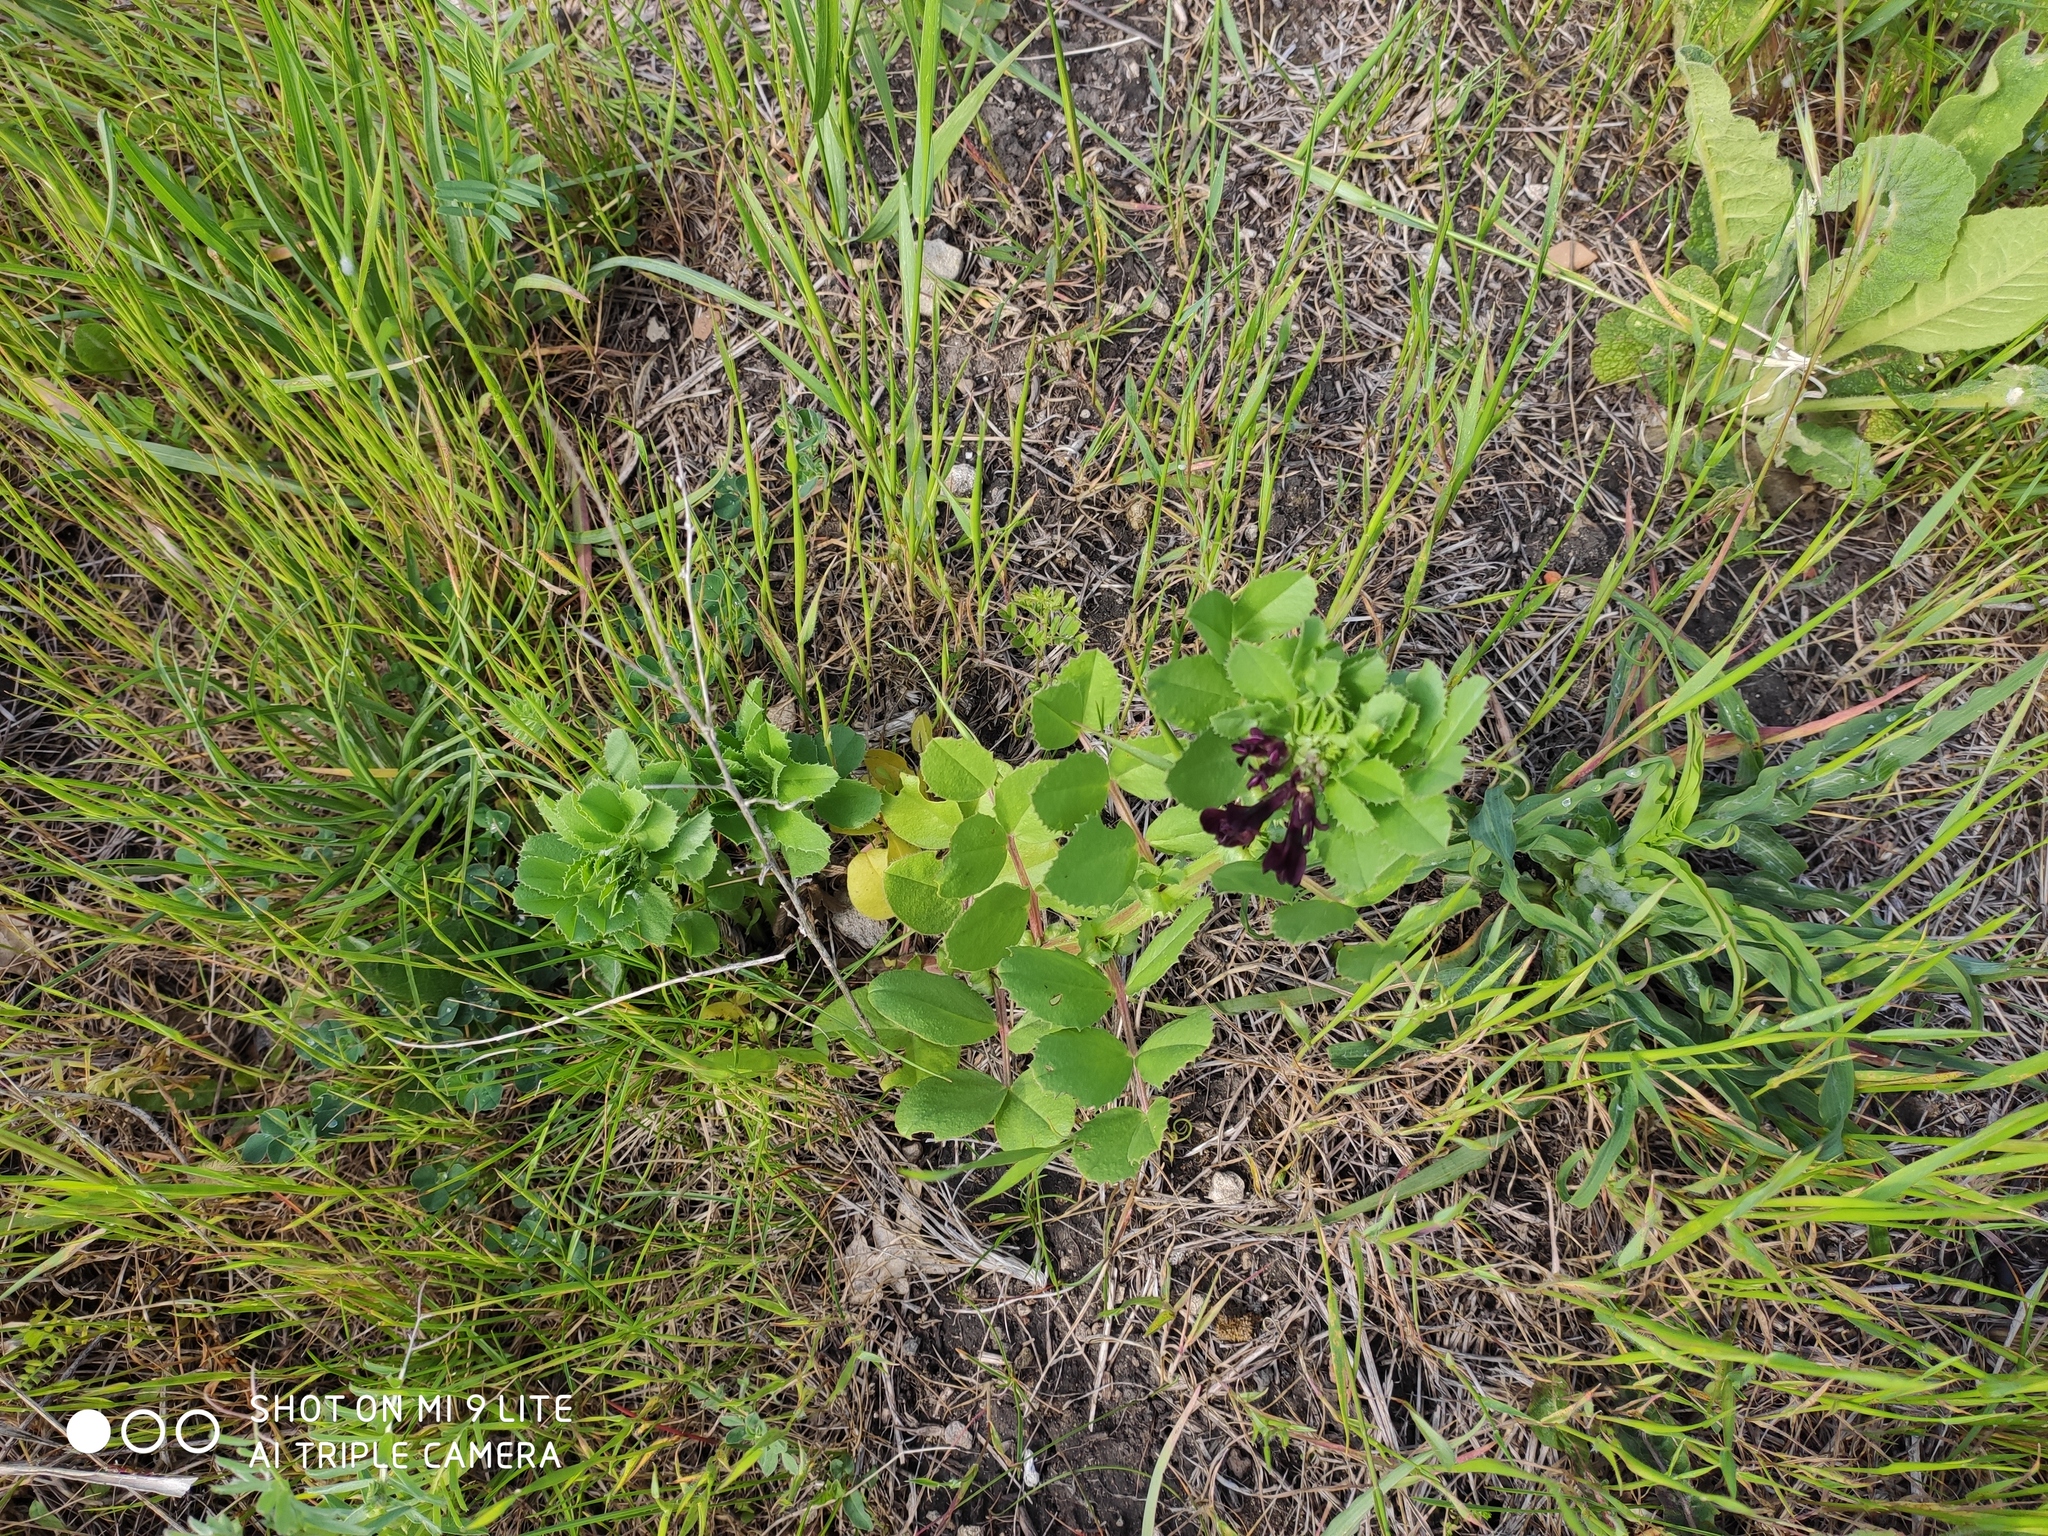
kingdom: Plantae
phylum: Tracheophyta
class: Magnoliopsida
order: Fabales
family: Fabaceae
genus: Vicia
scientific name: Vicia narbonensis
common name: Narbonne vetch
